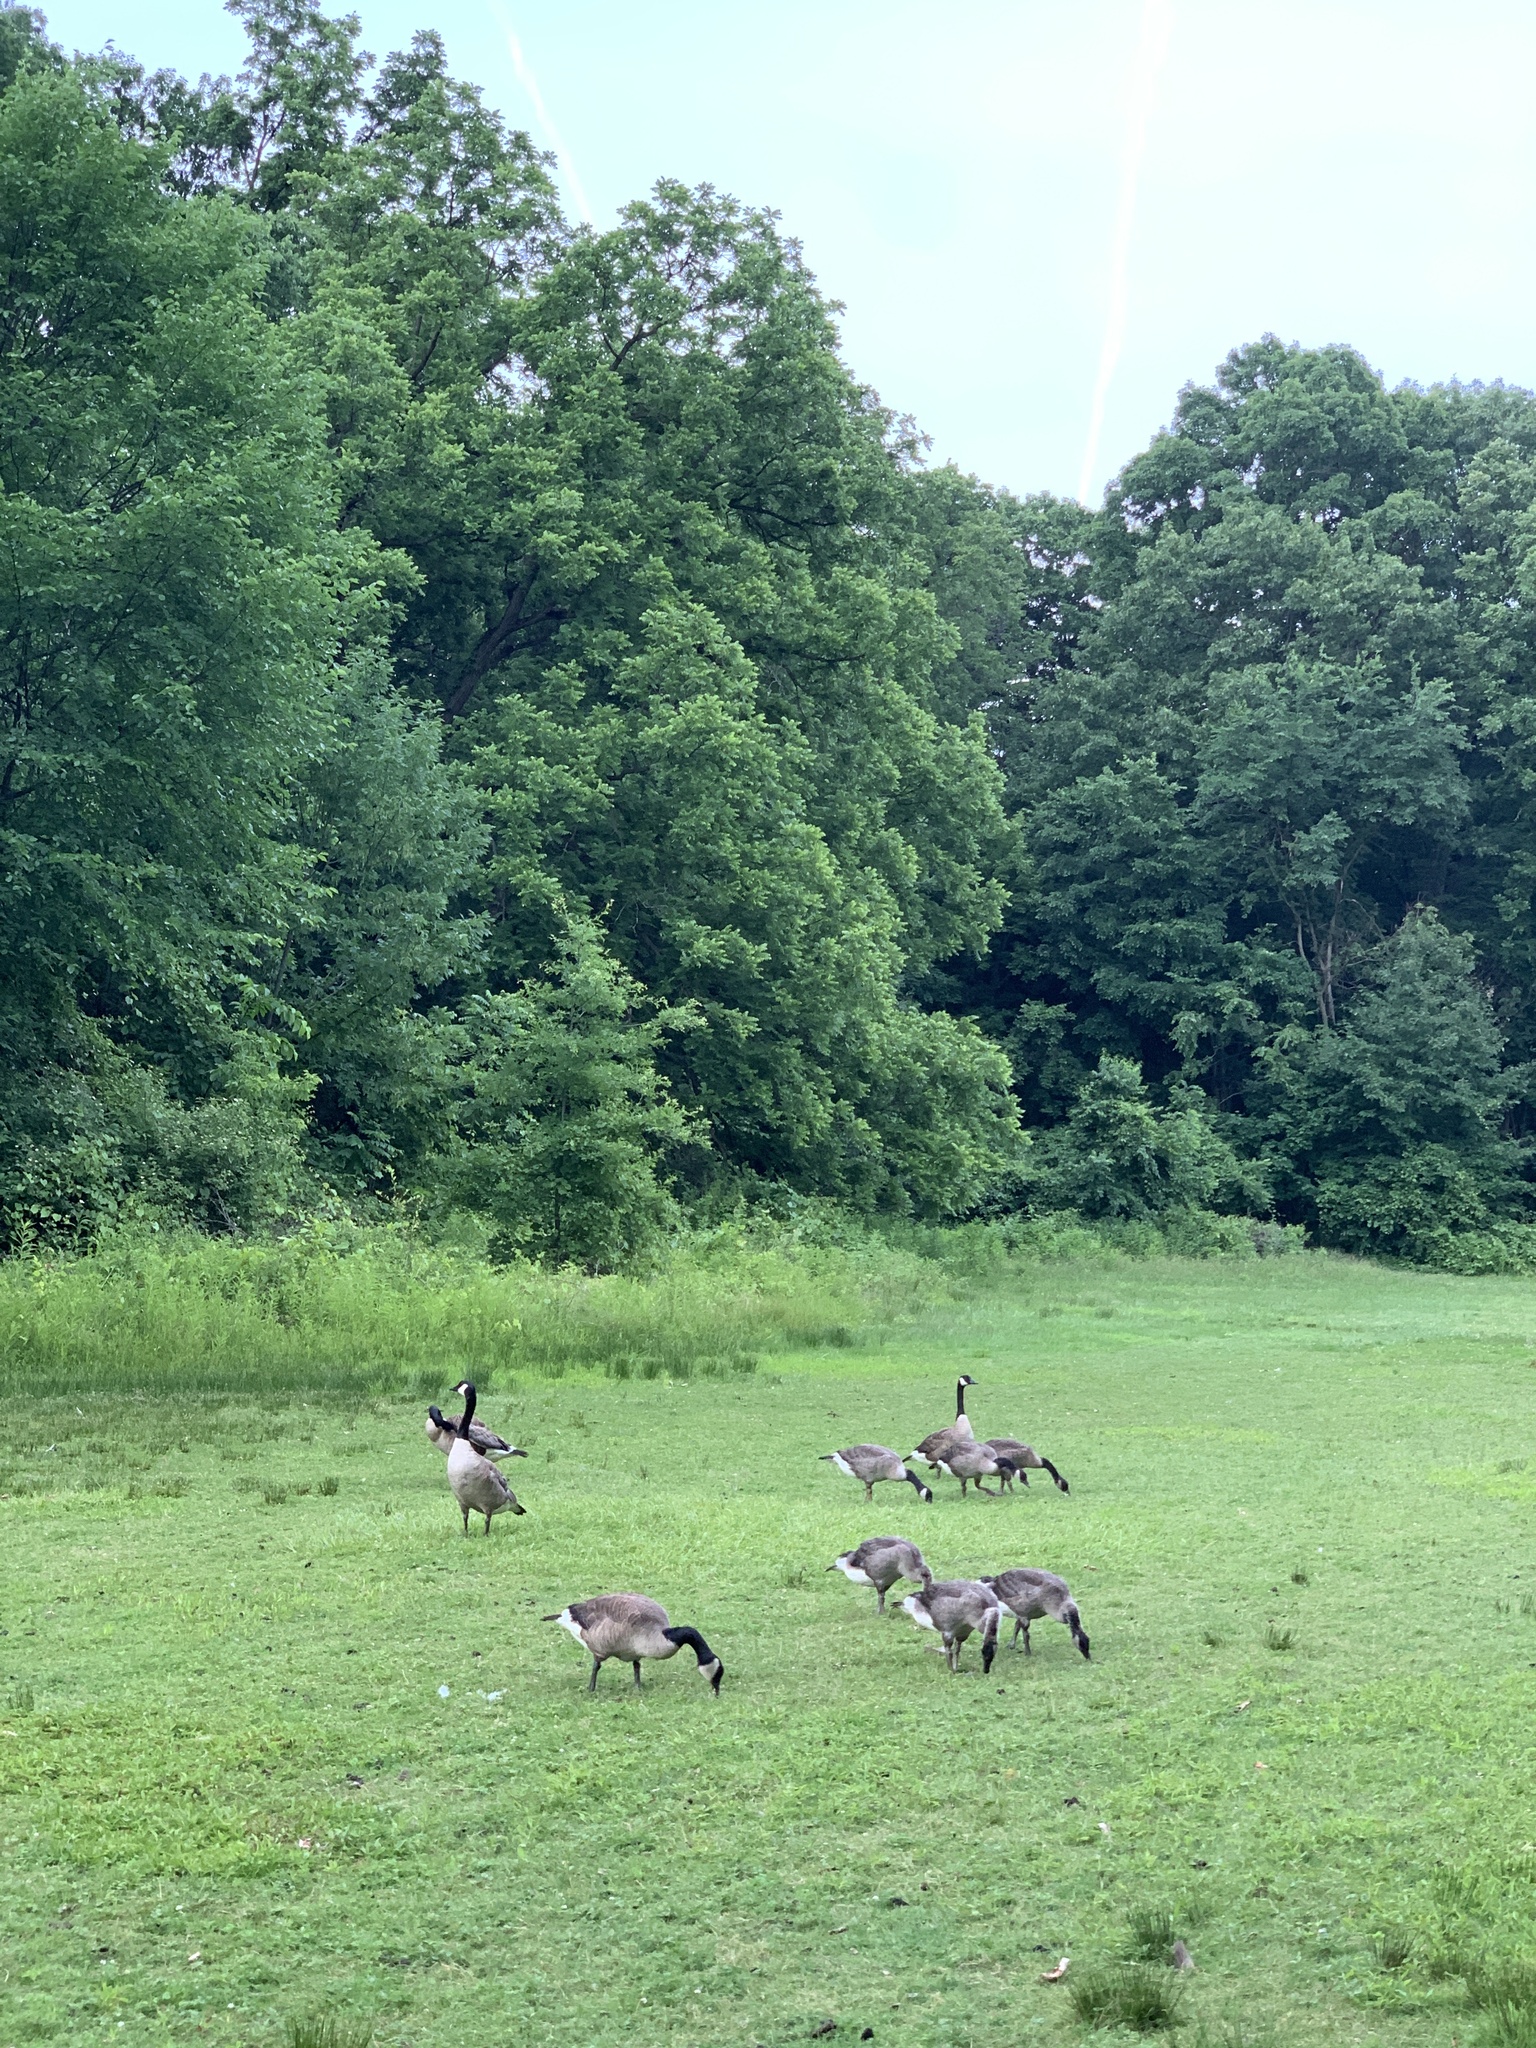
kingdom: Animalia
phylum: Chordata
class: Aves
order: Anseriformes
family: Anatidae
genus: Branta
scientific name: Branta canadensis
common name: Canada goose
